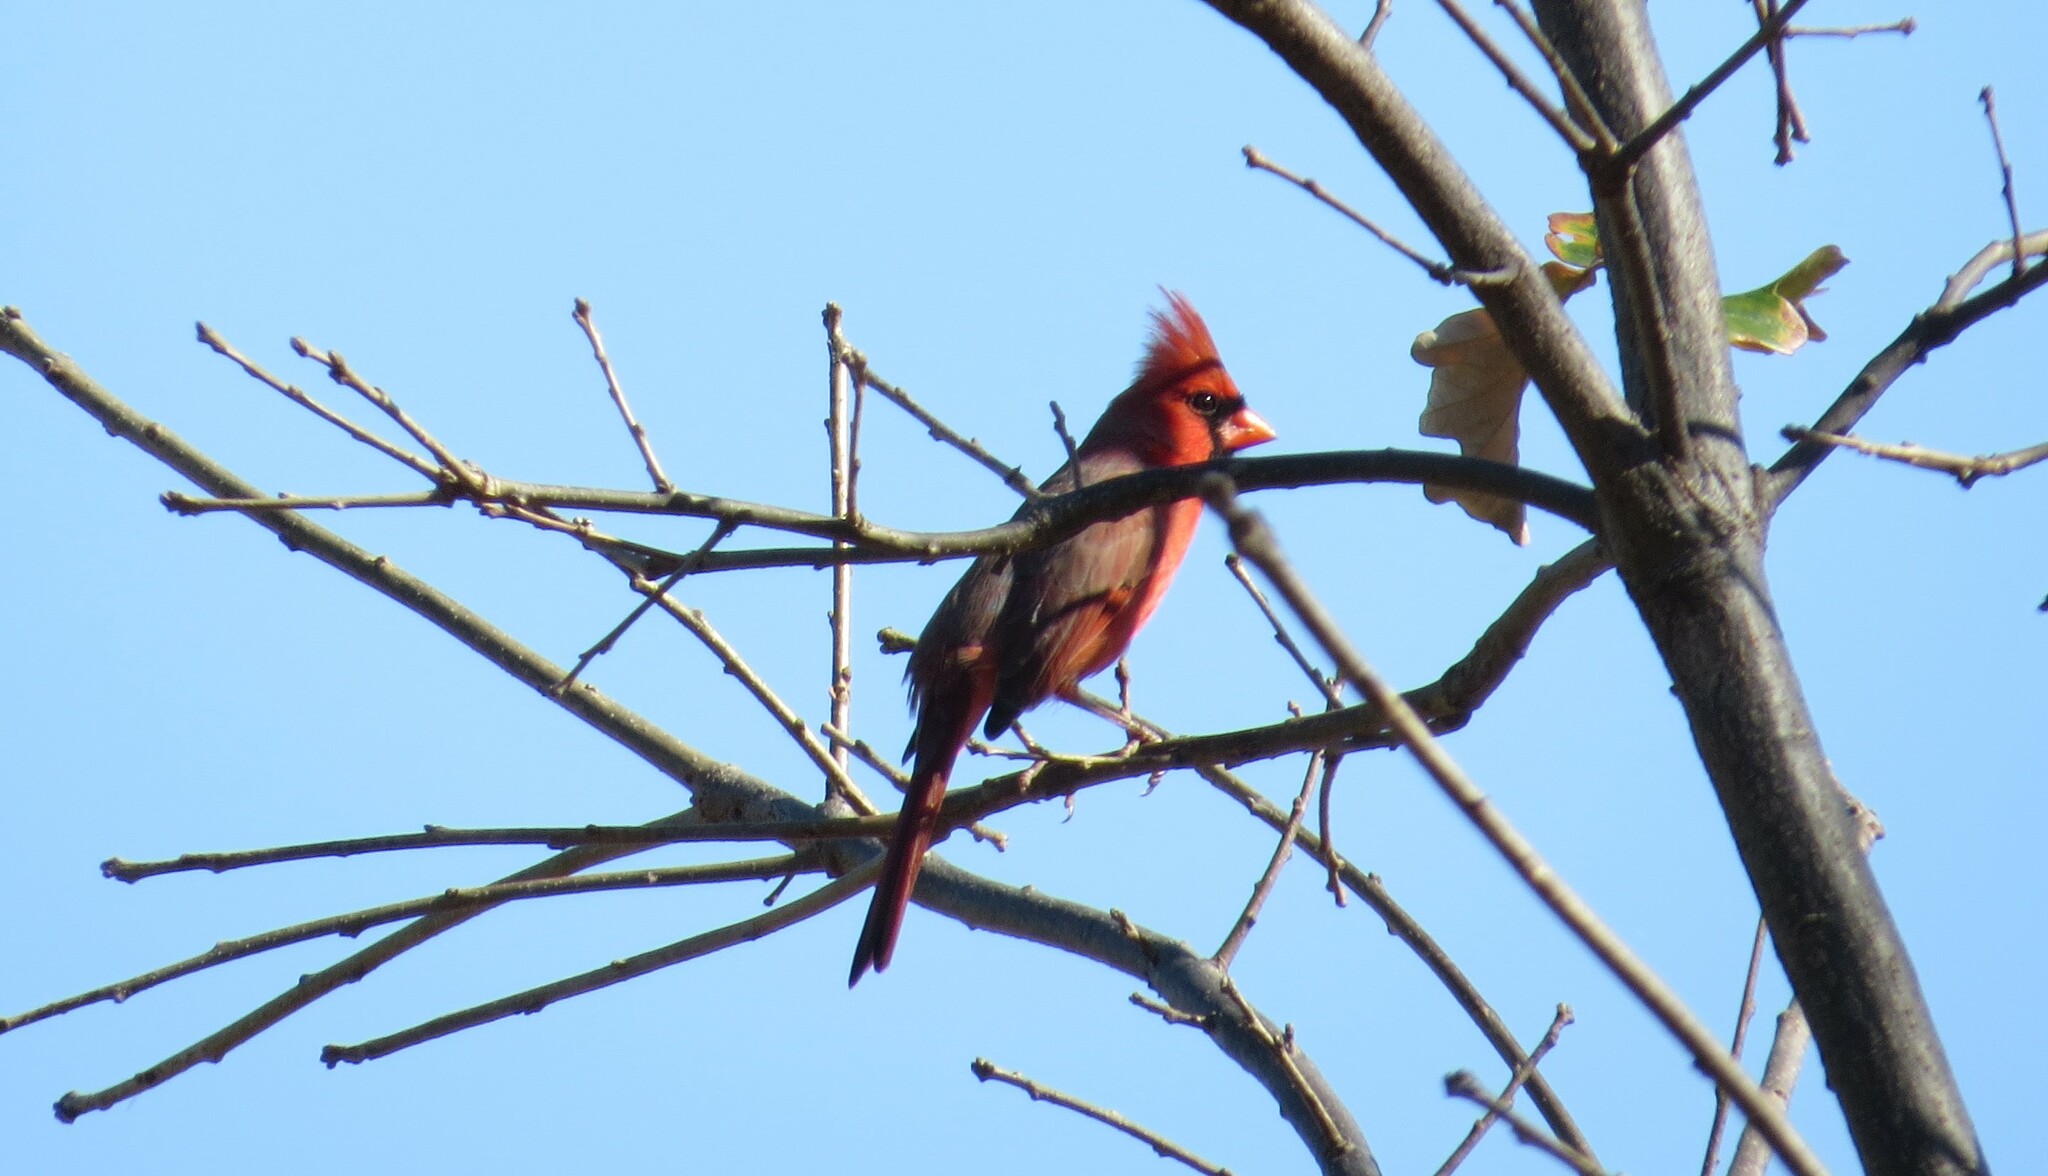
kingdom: Animalia
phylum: Chordata
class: Aves
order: Passeriformes
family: Cardinalidae
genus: Cardinalis
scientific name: Cardinalis cardinalis
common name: Northern cardinal
